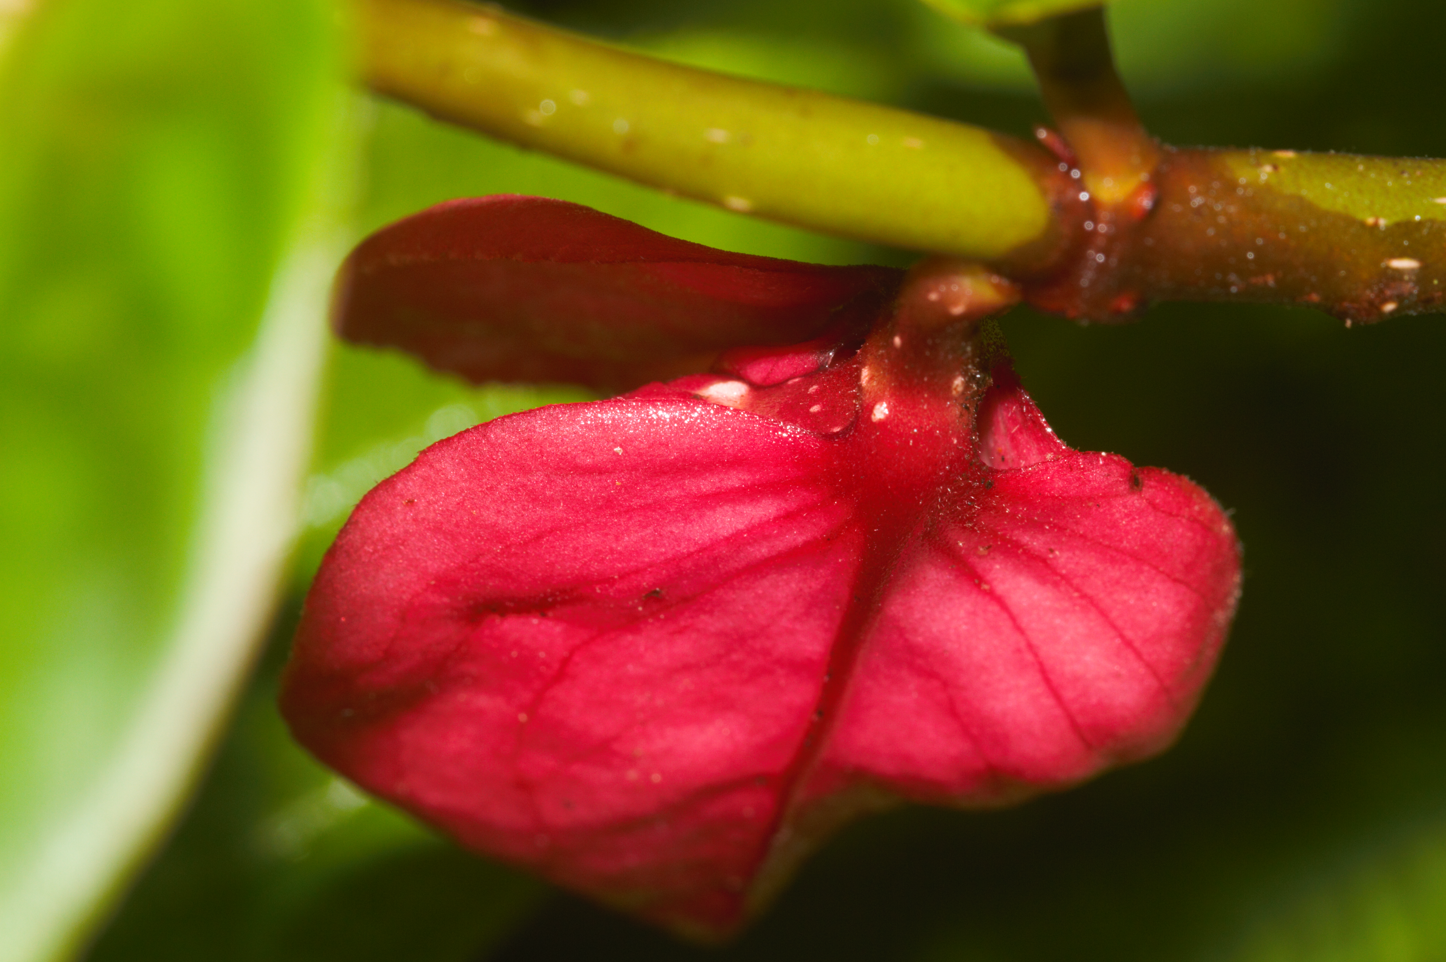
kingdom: Plantae
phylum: Tracheophyta
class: Magnoliopsida
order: Lamiales
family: Gesneriaceae
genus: Drymonia
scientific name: Drymonia coccinea
